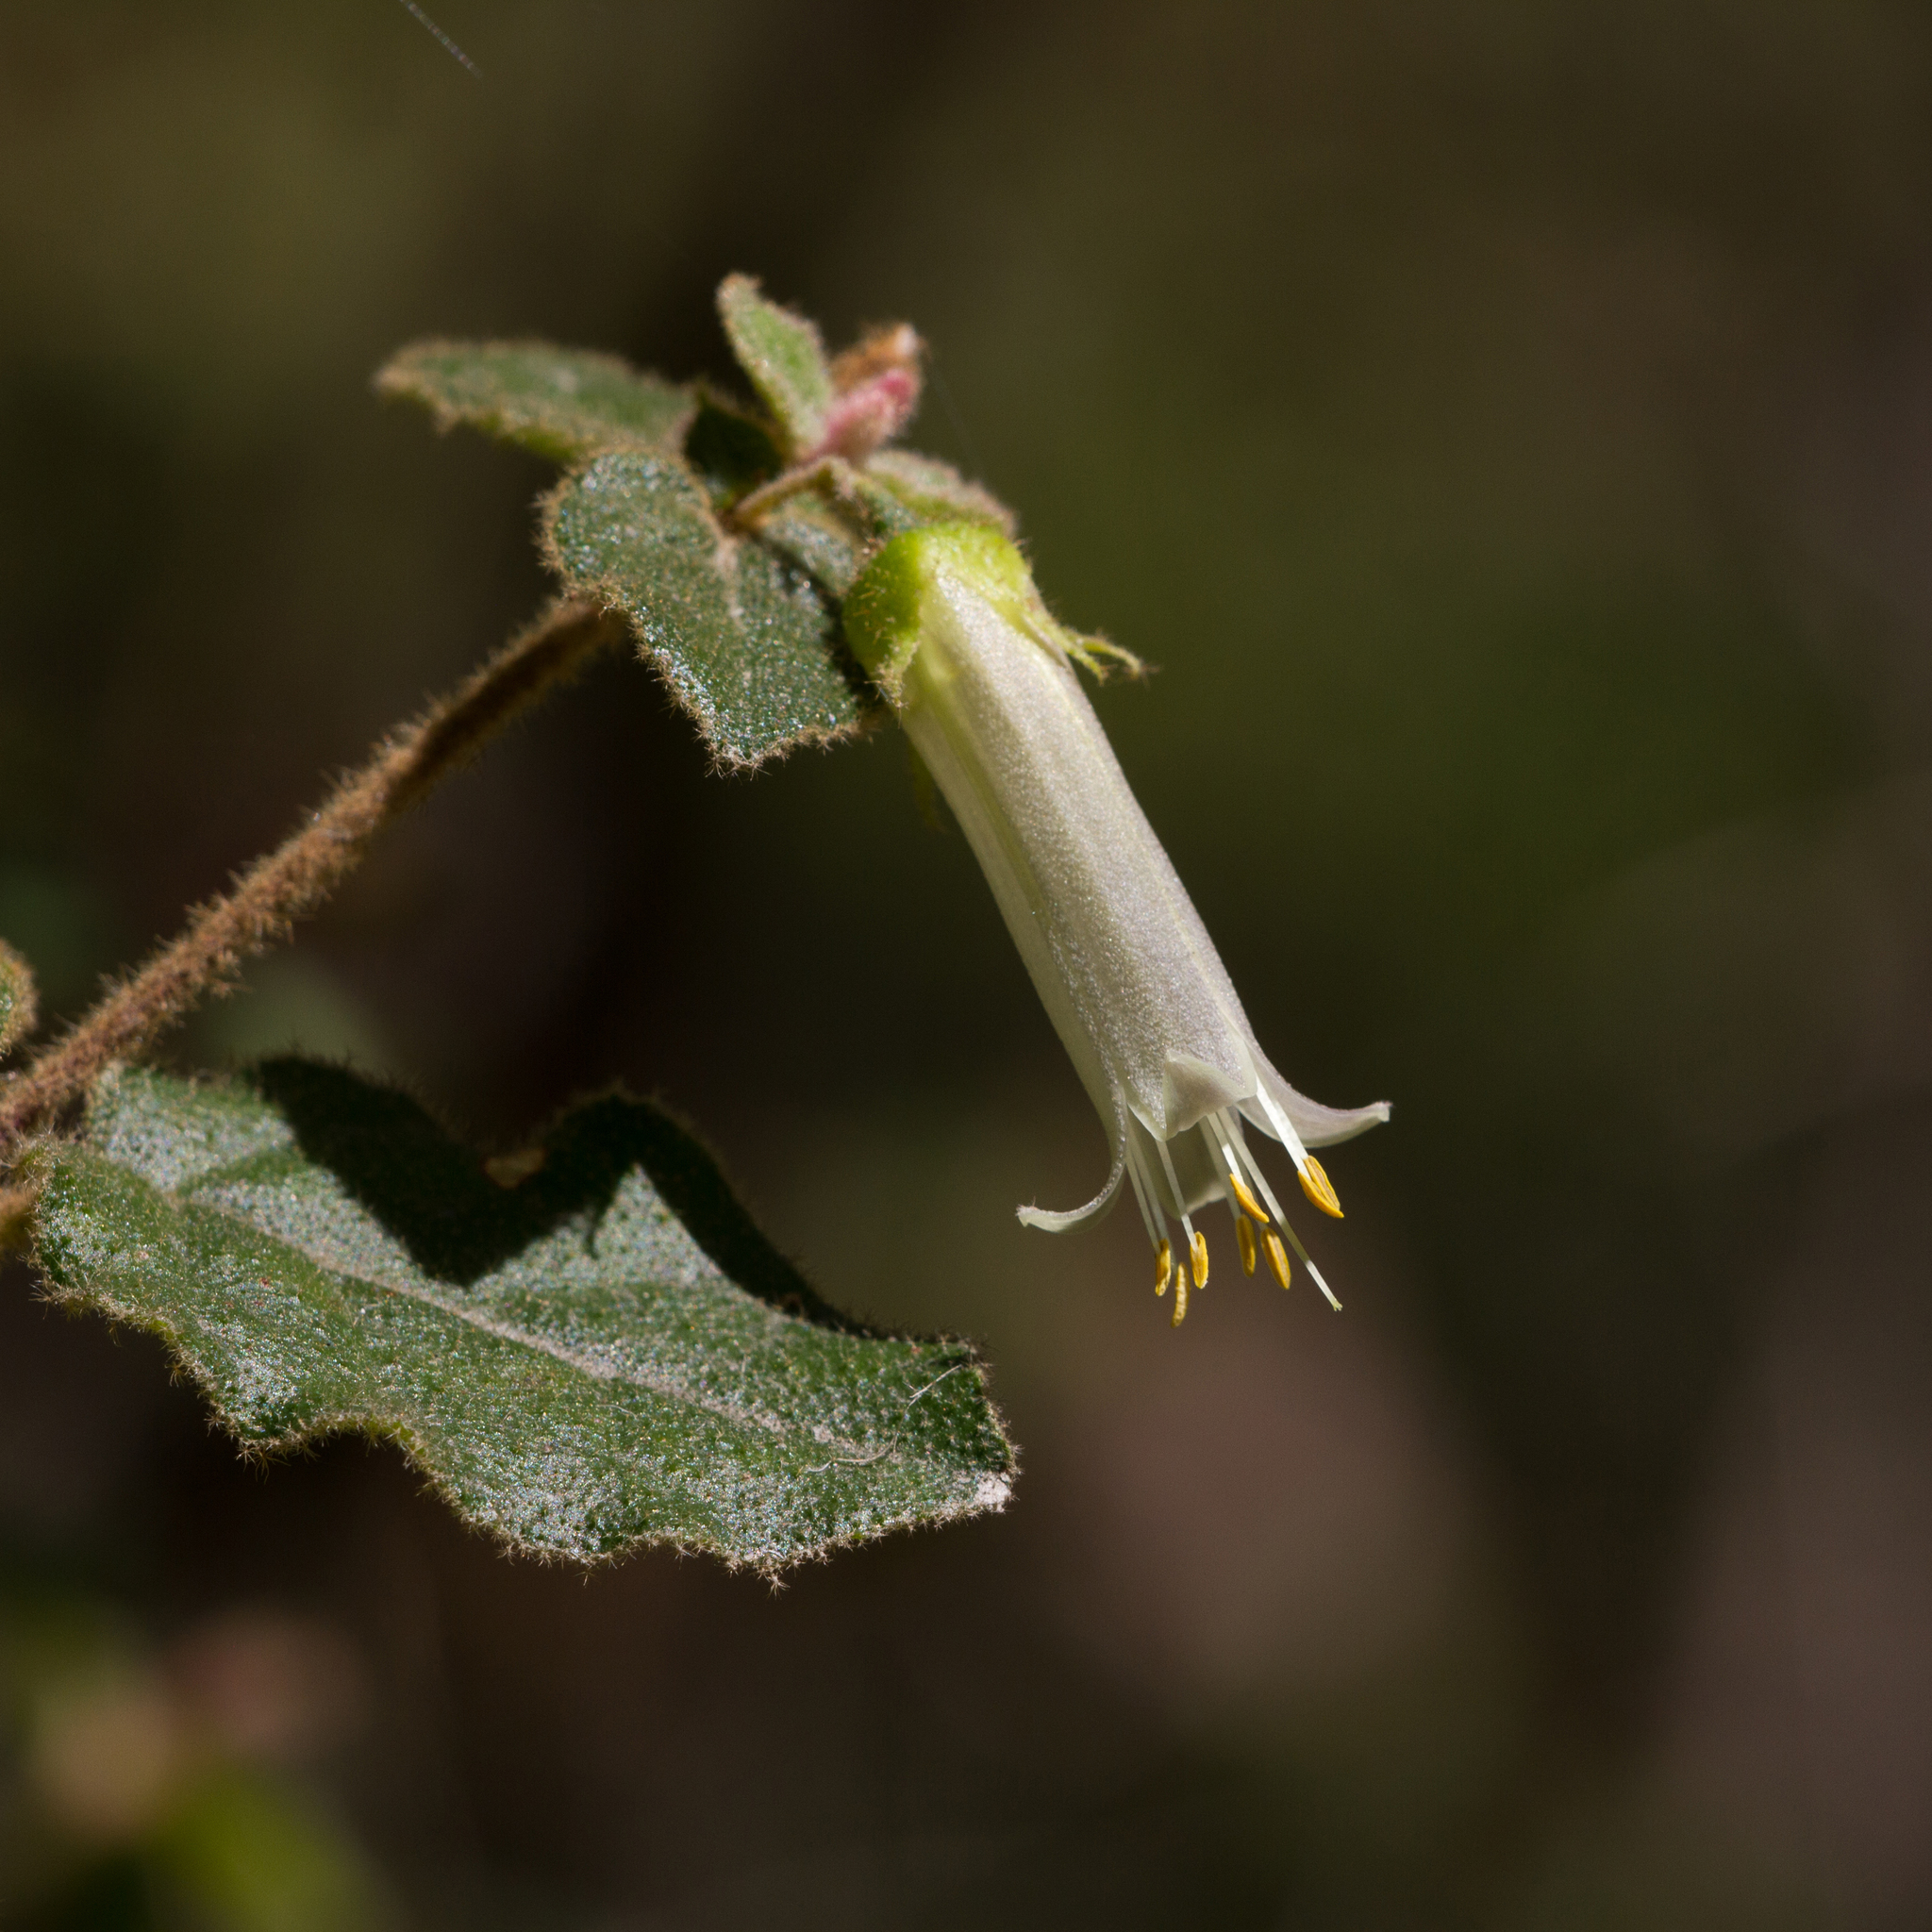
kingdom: Plantae
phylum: Tracheophyta
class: Magnoliopsida
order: Sapindales
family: Rutaceae
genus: Correa
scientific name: Correa aemula
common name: Hairy correa
